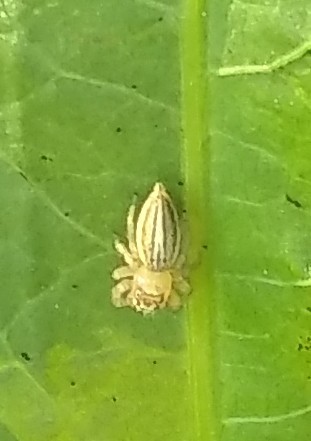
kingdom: Animalia
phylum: Arthropoda
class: Arachnida
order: Araneae
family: Salticidae
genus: Colonus
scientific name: Colonus puerperus
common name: Jumping spiders
